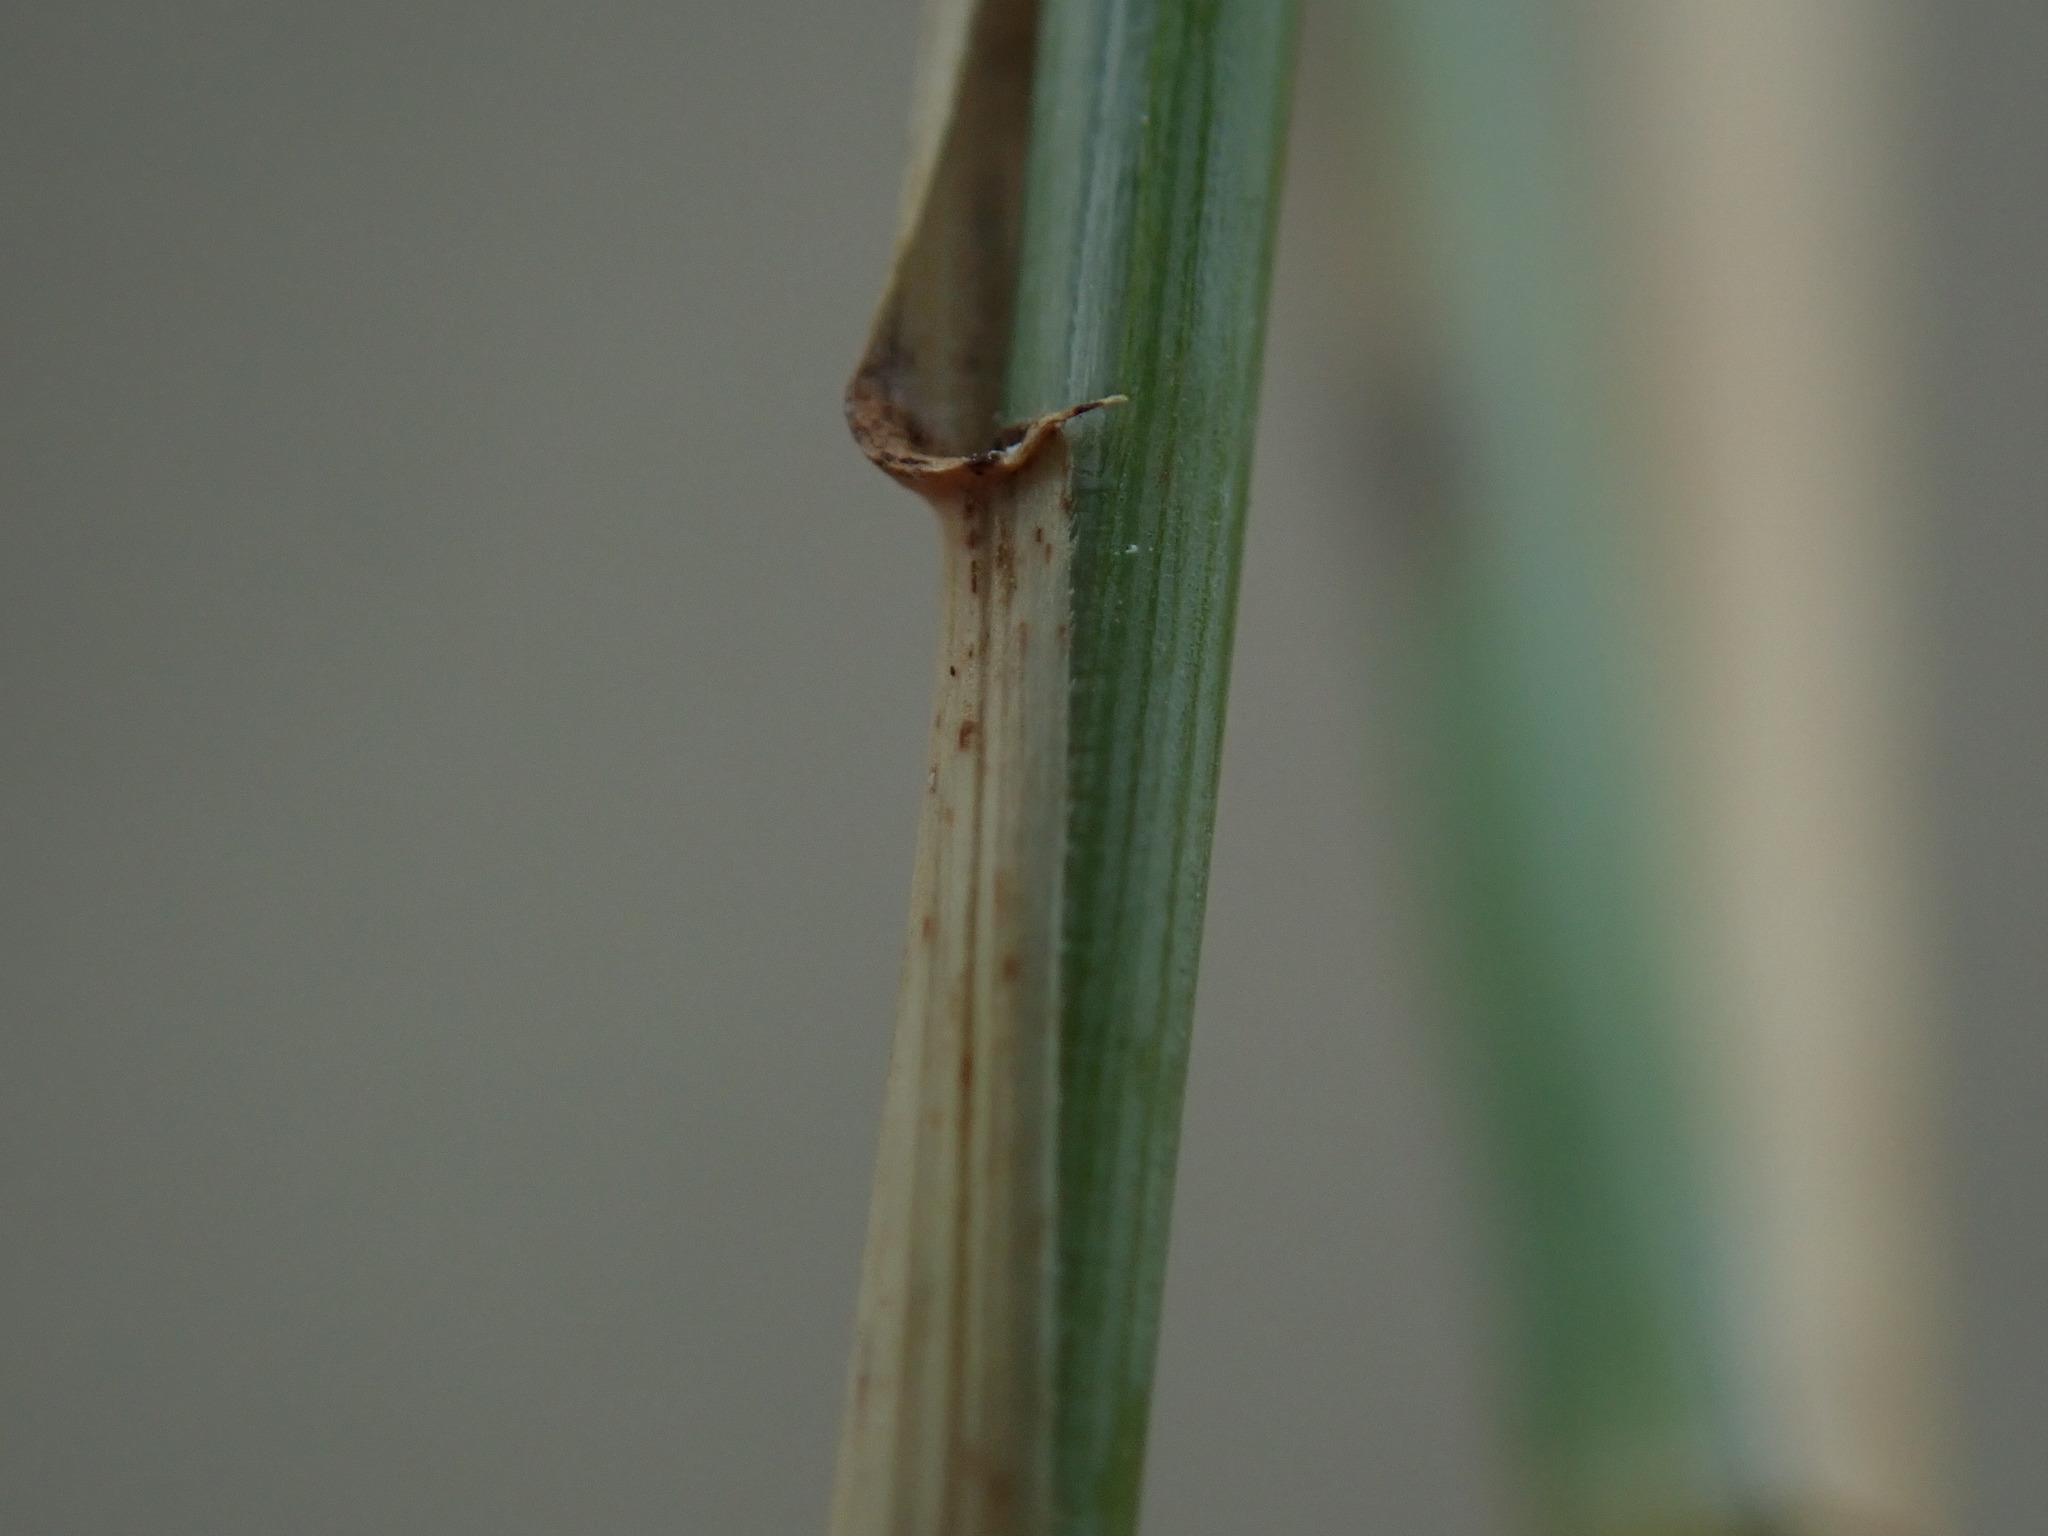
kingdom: Plantae
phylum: Tracheophyta
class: Liliopsida
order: Poales
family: Poaceae
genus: Elymus
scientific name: Elymus athericus
